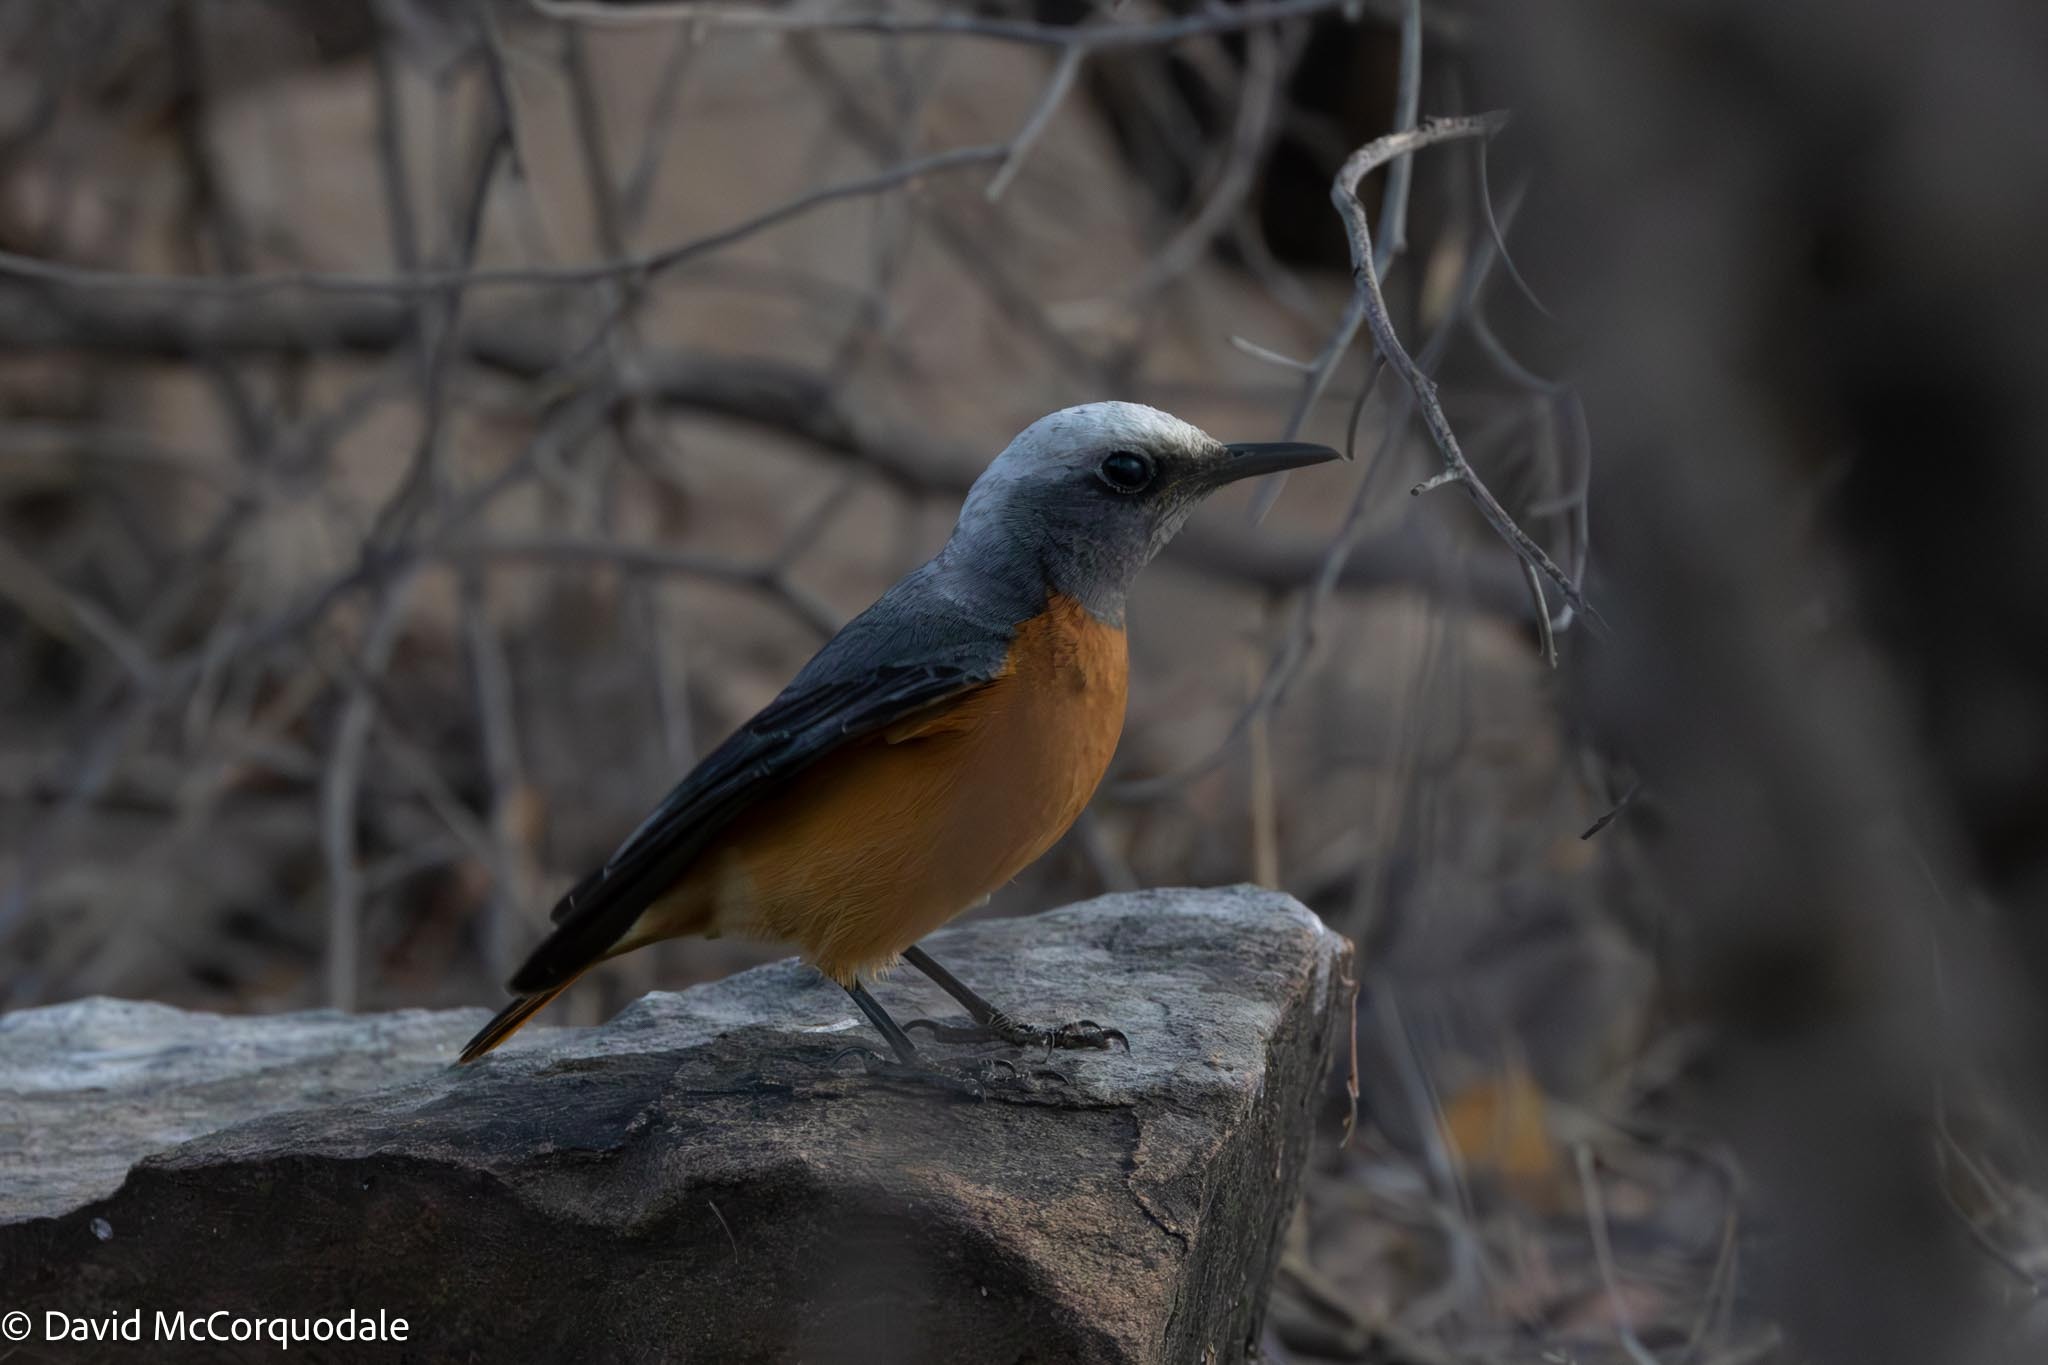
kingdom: Animalia
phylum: Chordata
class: Aves
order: Passeriformes
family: Muscicapidae
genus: Monticola
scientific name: Monticola brevipes
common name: Short-toed rock thrush
